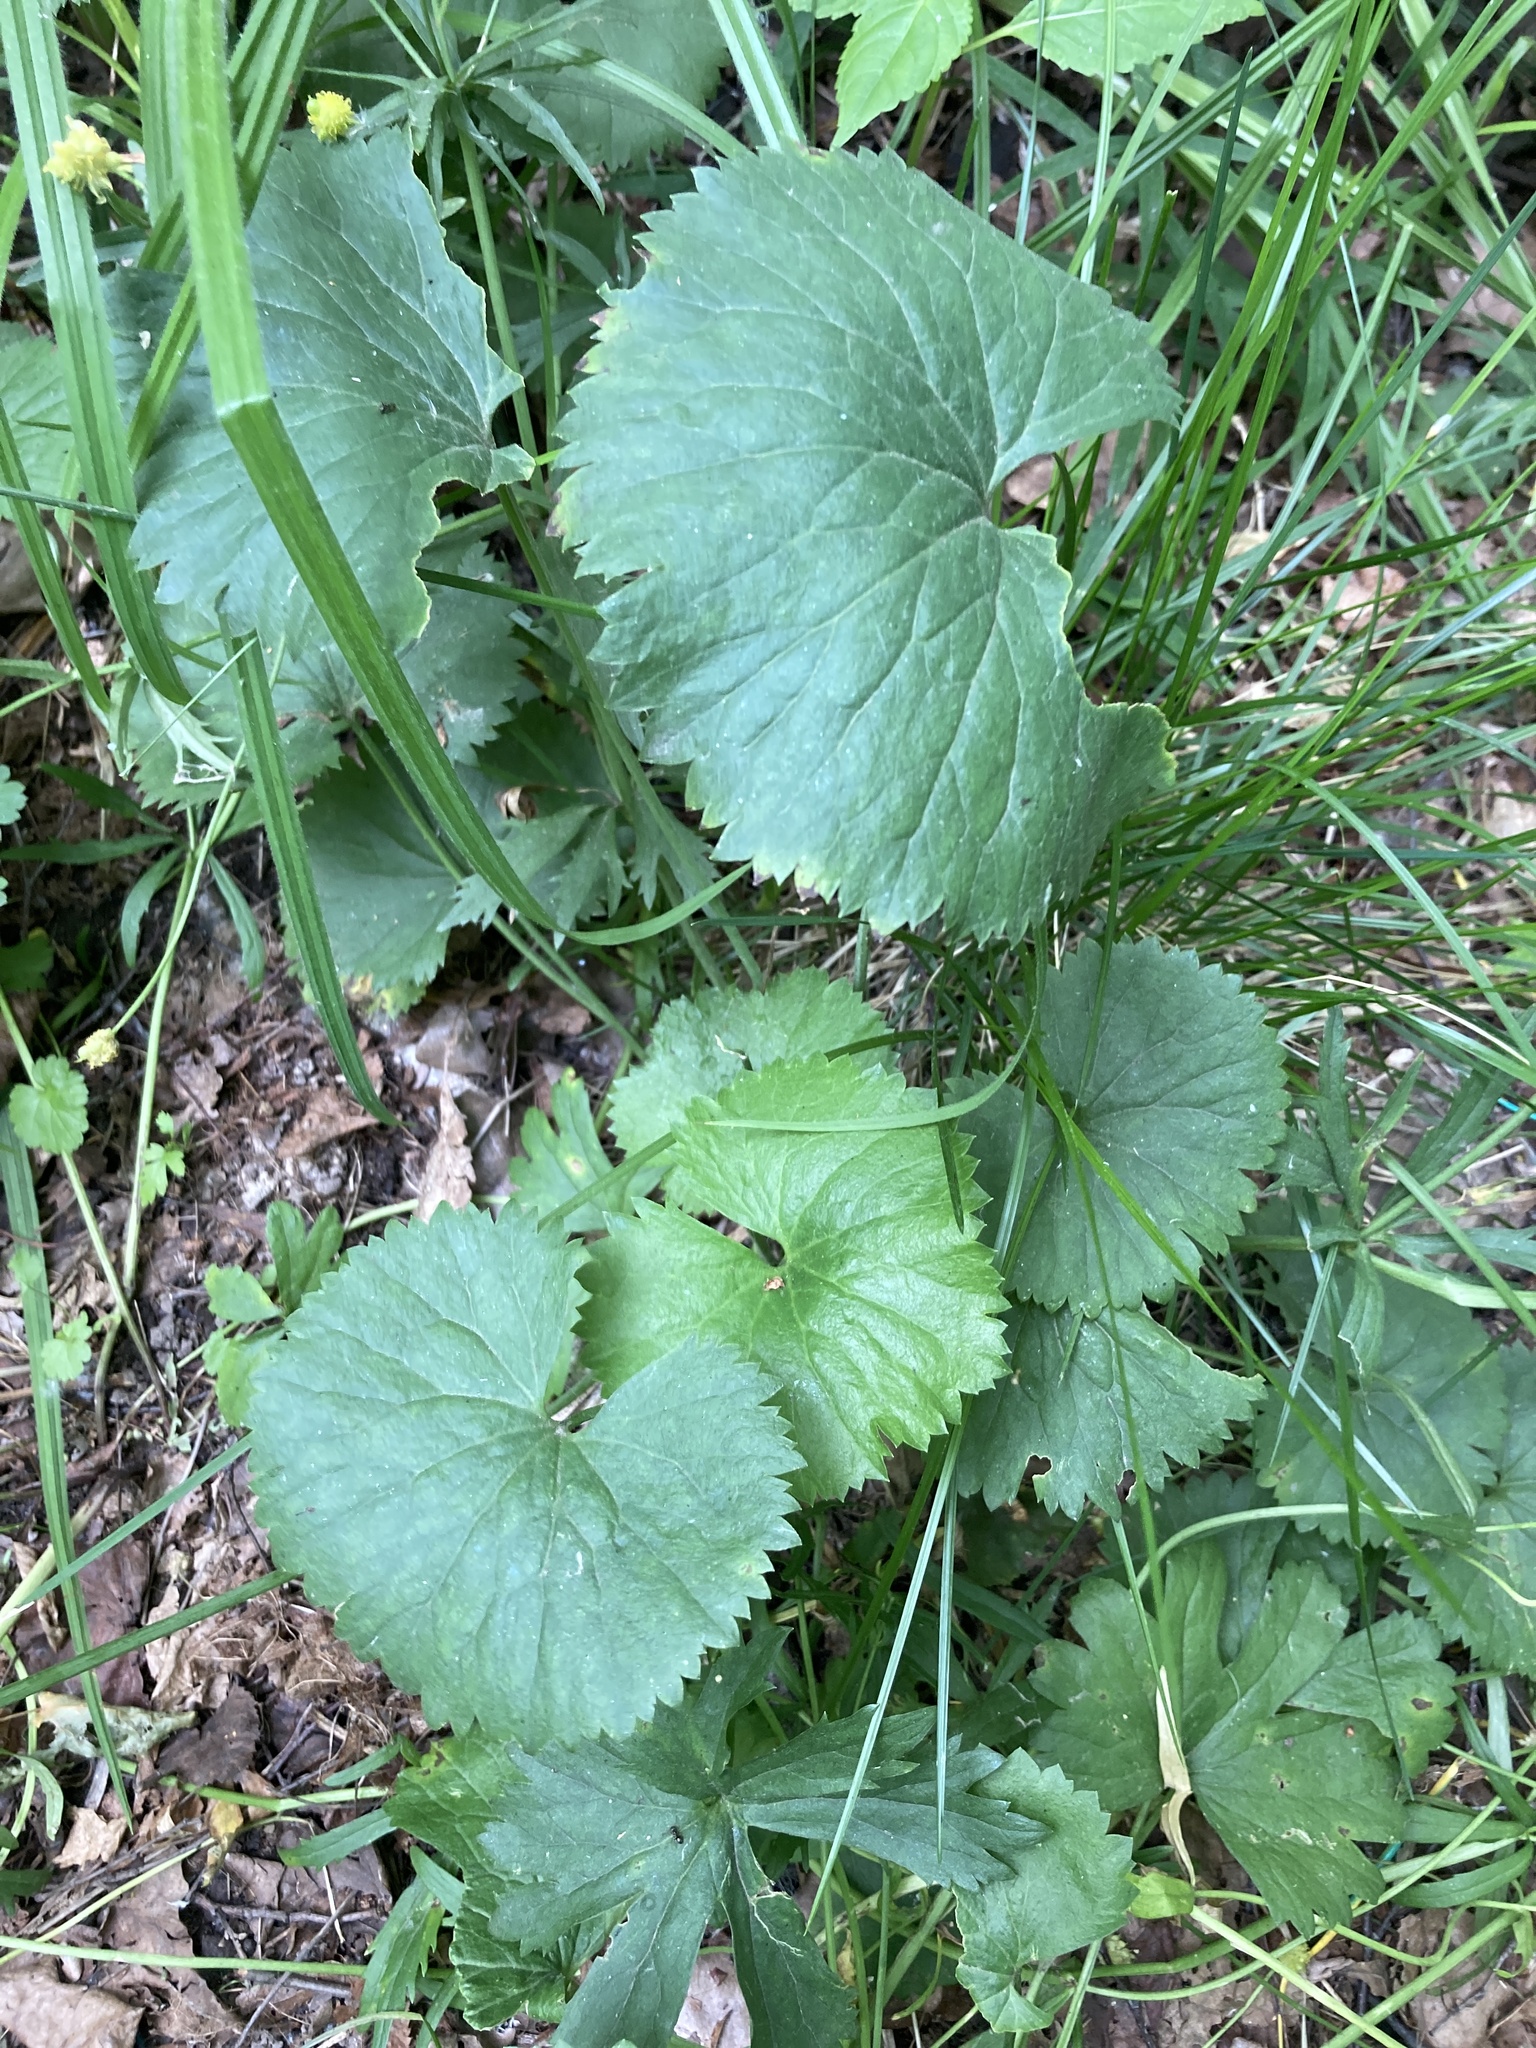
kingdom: Plantae
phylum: Tracheophyta
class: Magnoliopsida
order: Ranunculales
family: Ranunculaceae
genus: Ranunculus
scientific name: Ranunculus cassubicus
